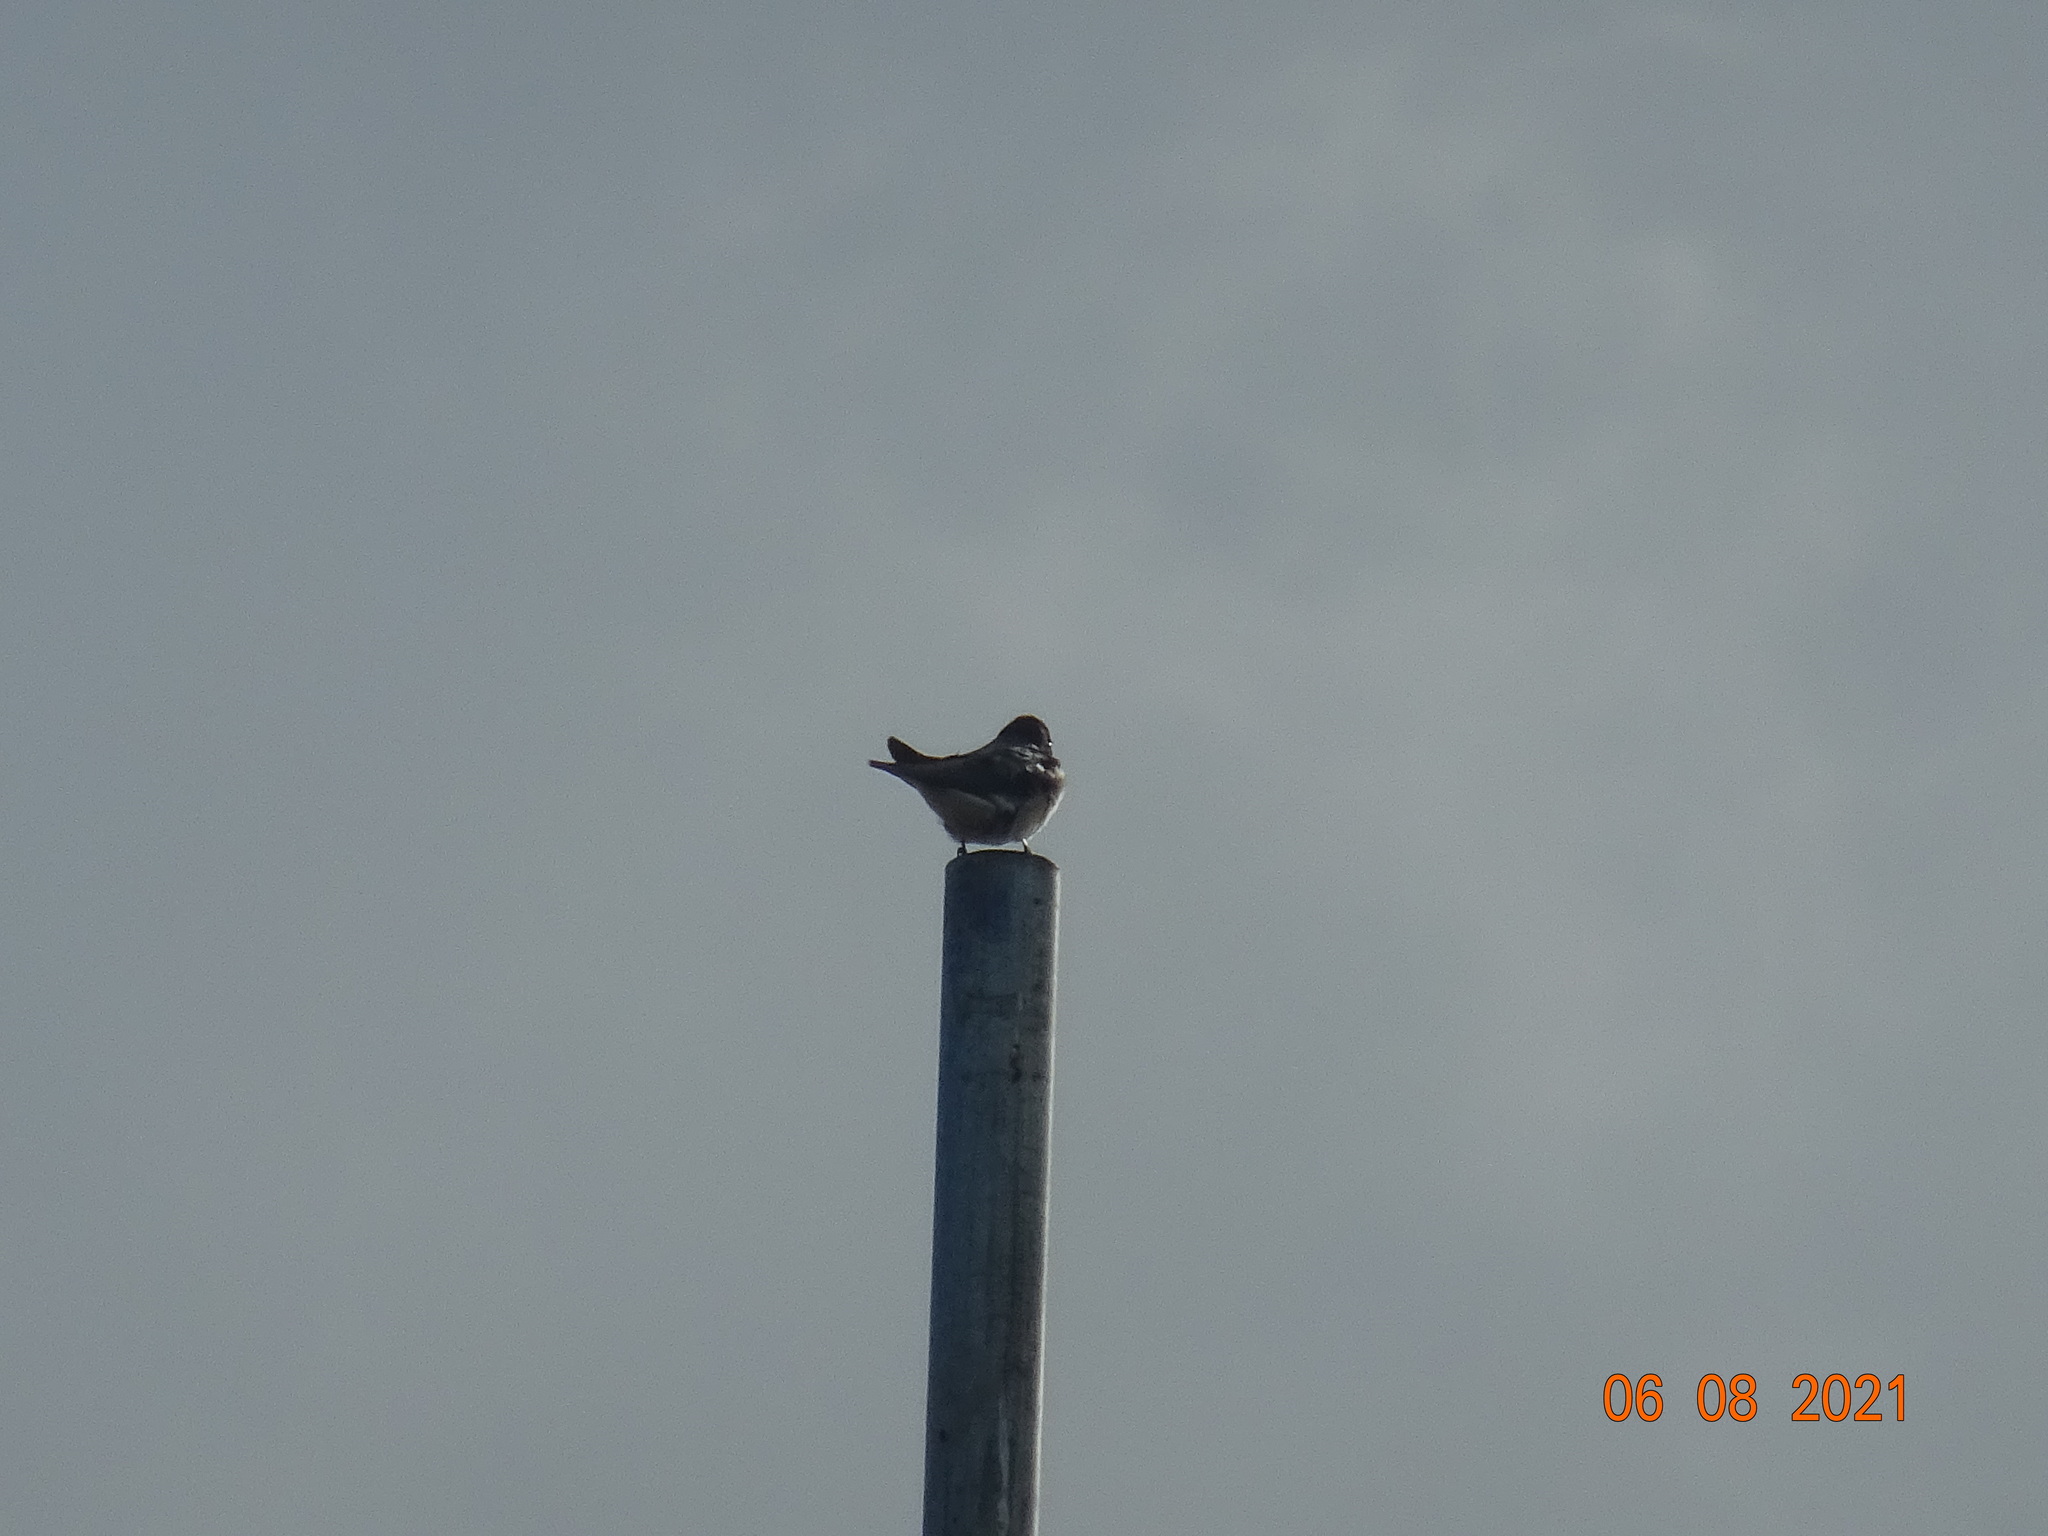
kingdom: Animalia
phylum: Chordata
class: Aves
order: Passeriformes
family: Hirundinidae
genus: Hirundo
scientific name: Hirundo rustica
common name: Barn swallow
